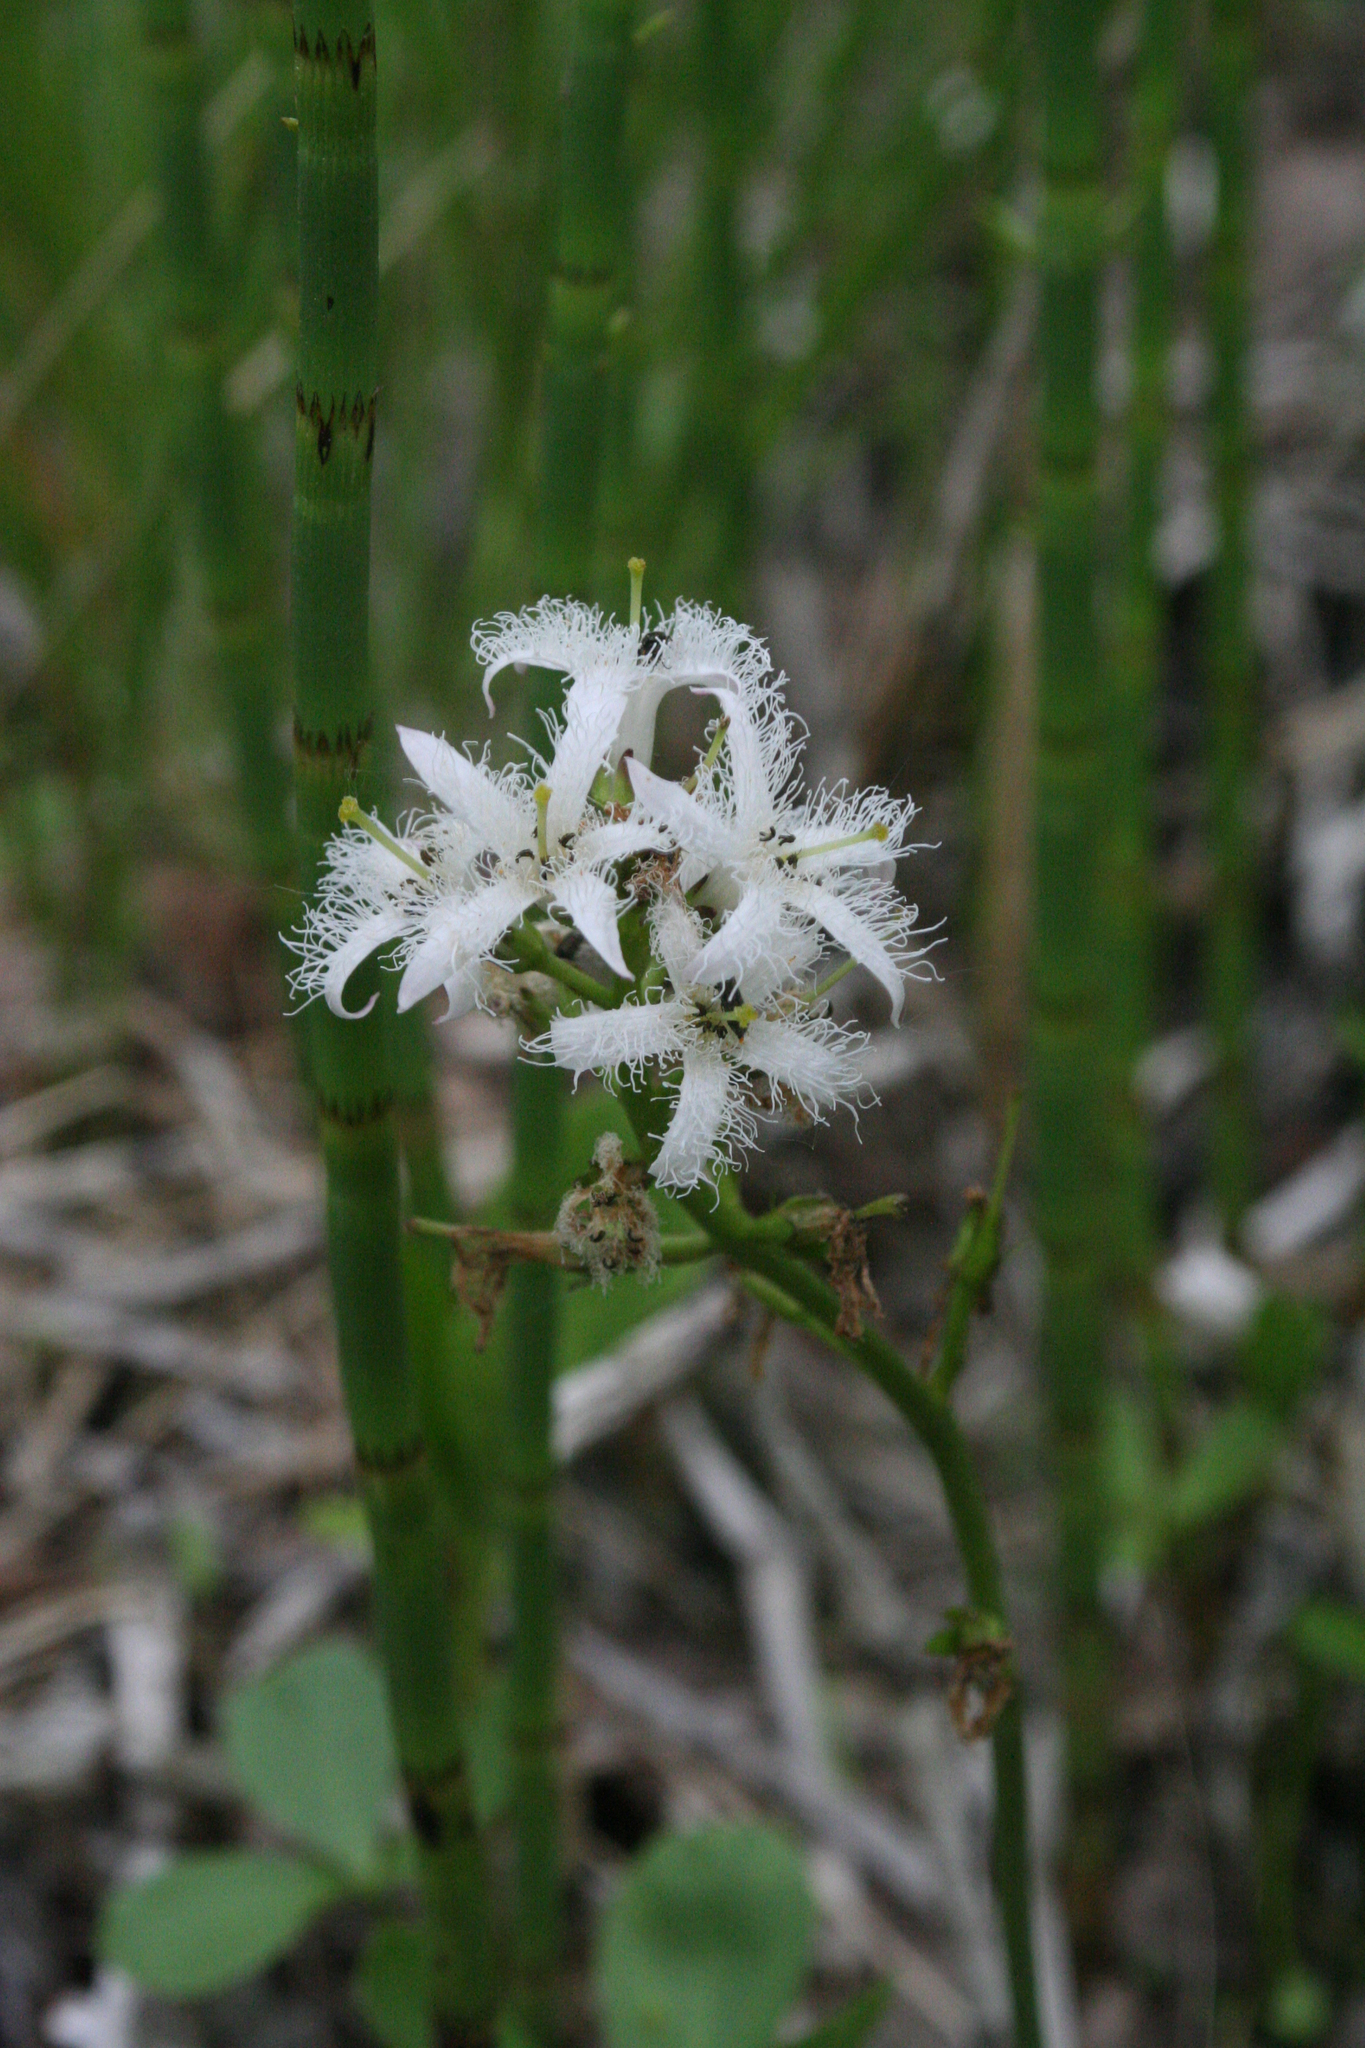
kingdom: Plantae
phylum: Tracheophyta
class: Magnoliopsida
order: Asterales
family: Menyanthaceae
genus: Menyanthes
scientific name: Menyanthes trifoliata
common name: Bogbean
